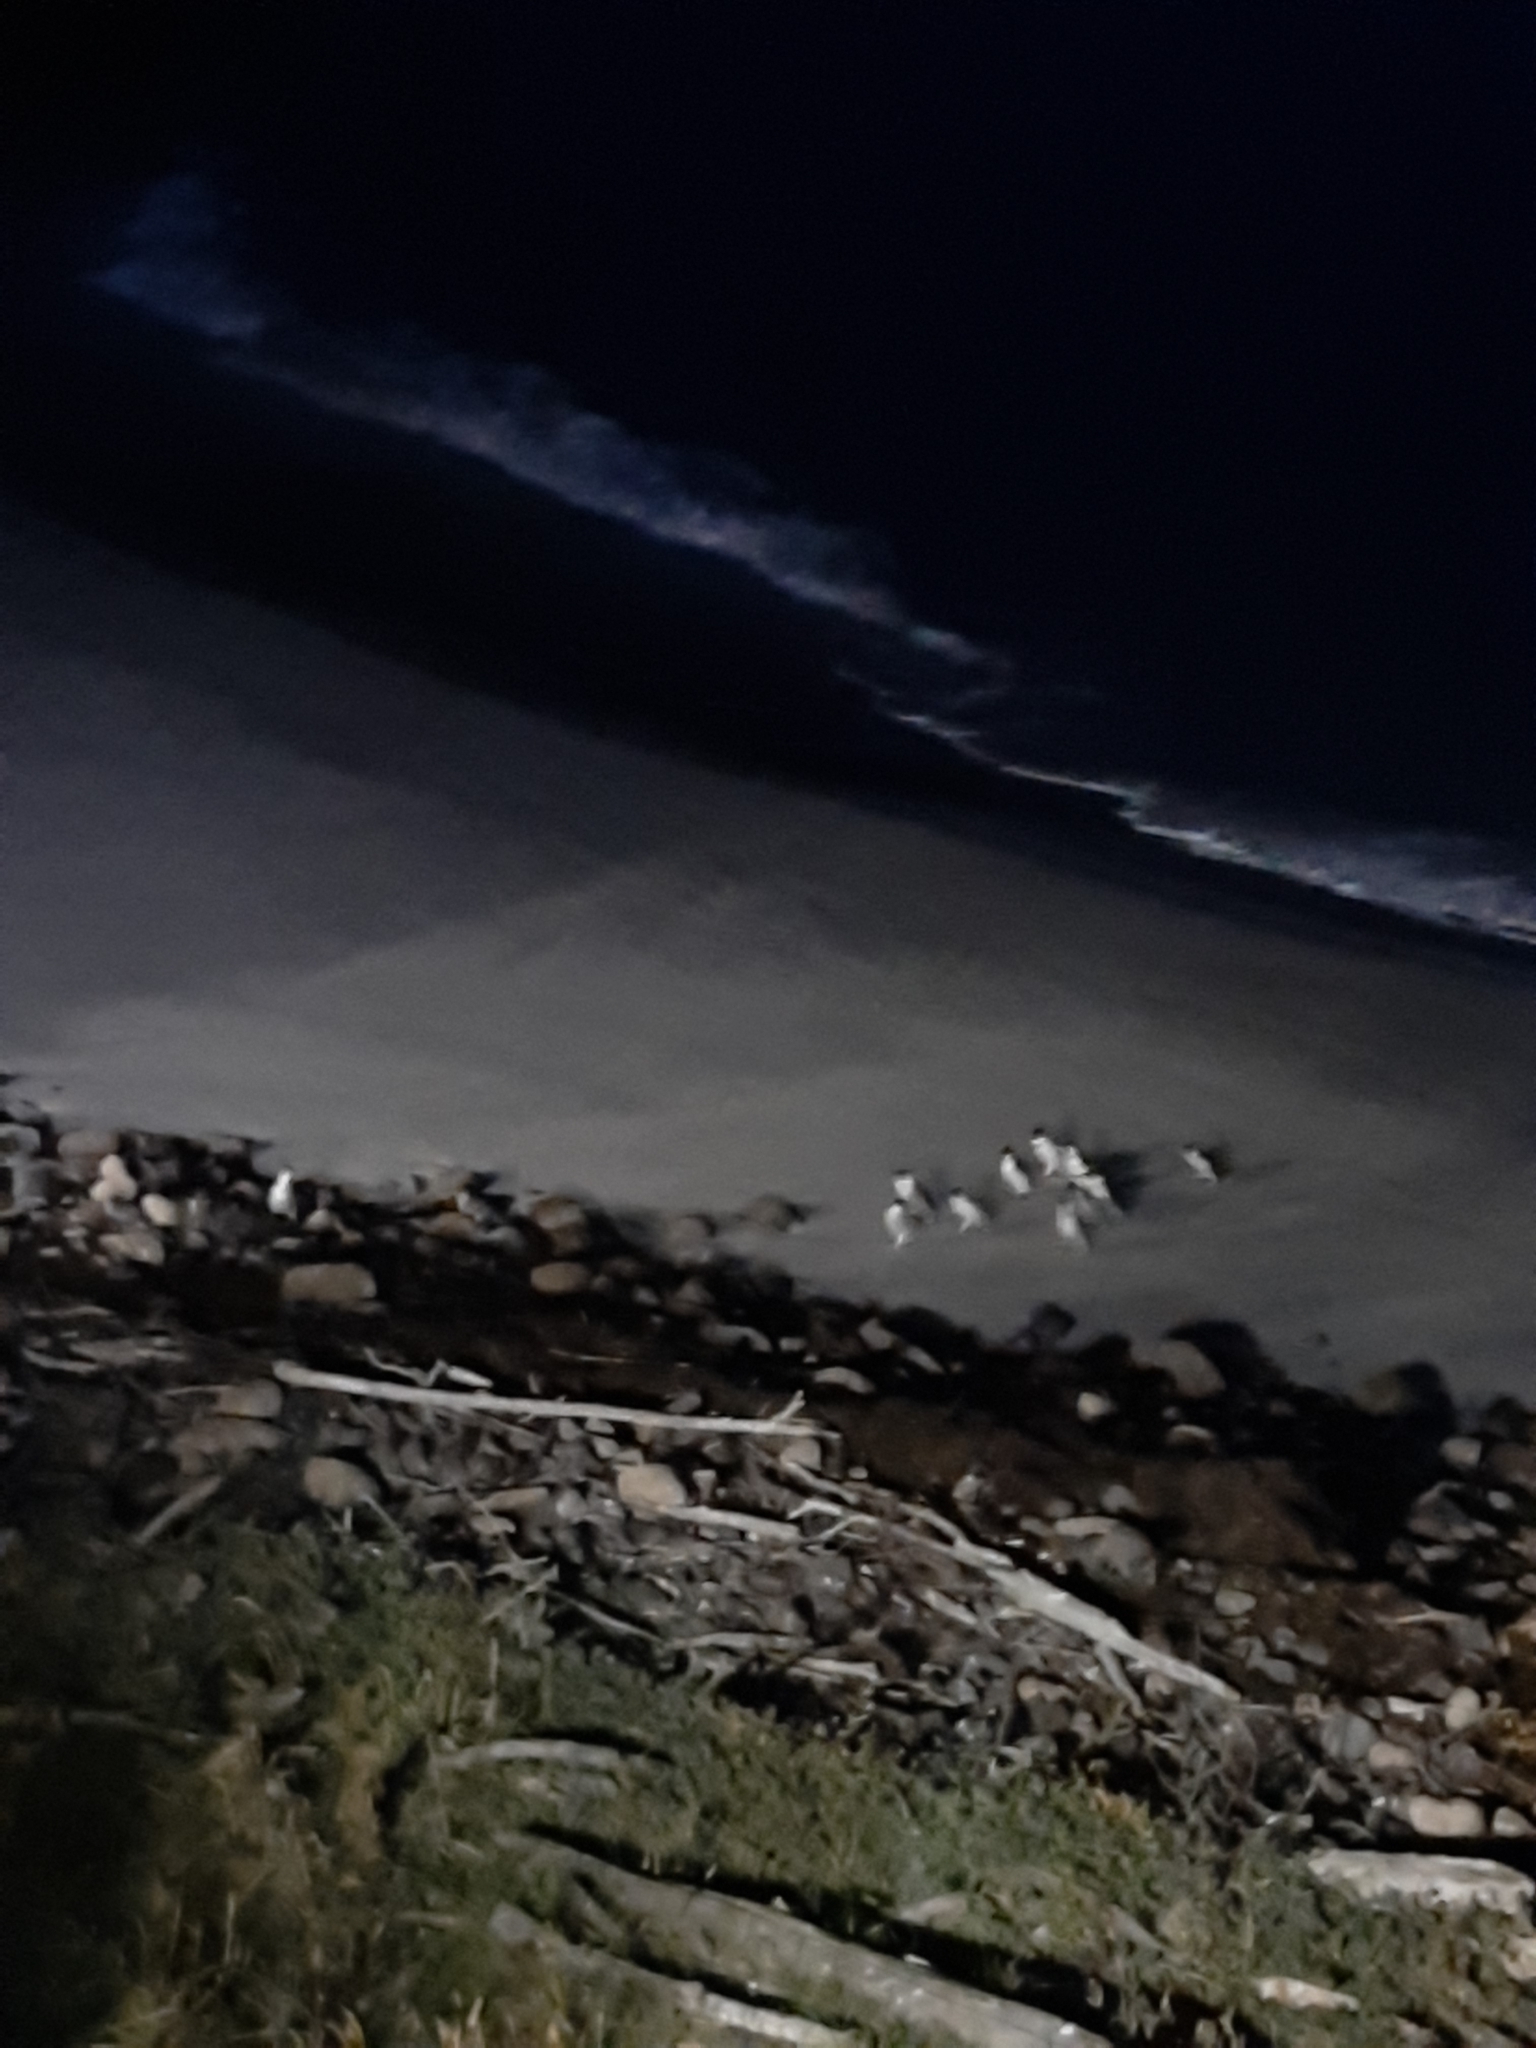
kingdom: Animalia
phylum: Chordata
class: Aves
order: Sphenisciformes
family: Spheniscidae
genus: Eudyptula
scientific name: Eudyptula minor
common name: Little penguin
